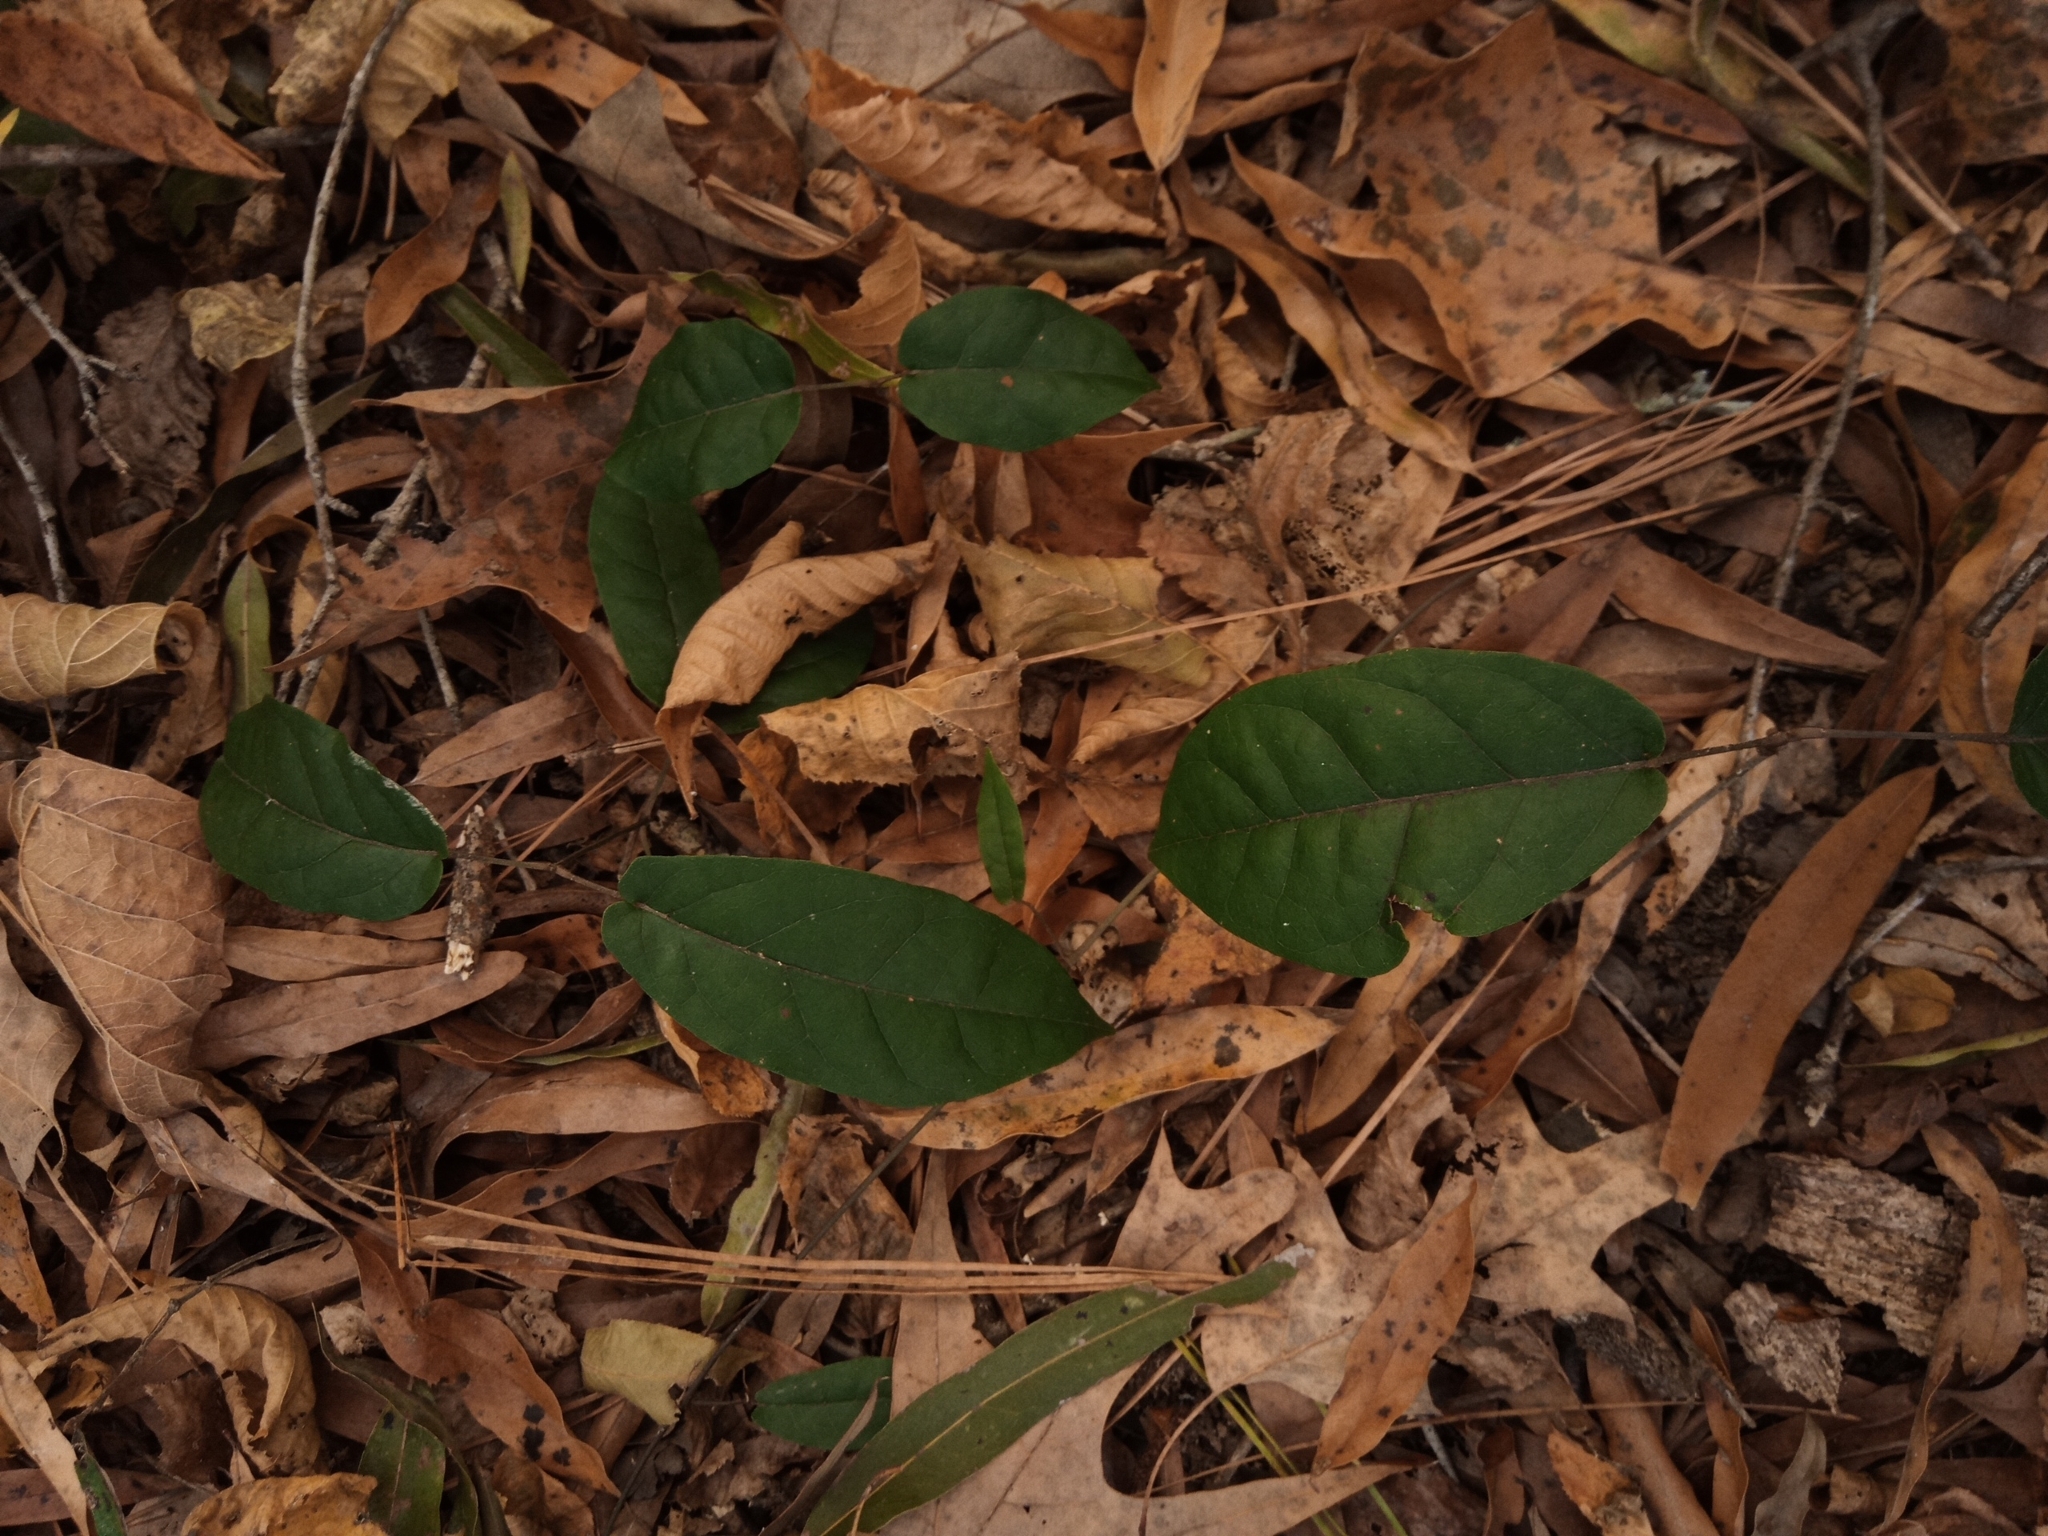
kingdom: Plantae
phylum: Tracheophyta
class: Magnoliopsida
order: Lamiales
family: Bignoniaceae
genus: Bignonia
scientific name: Bignonia capreolata
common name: Crossvine
